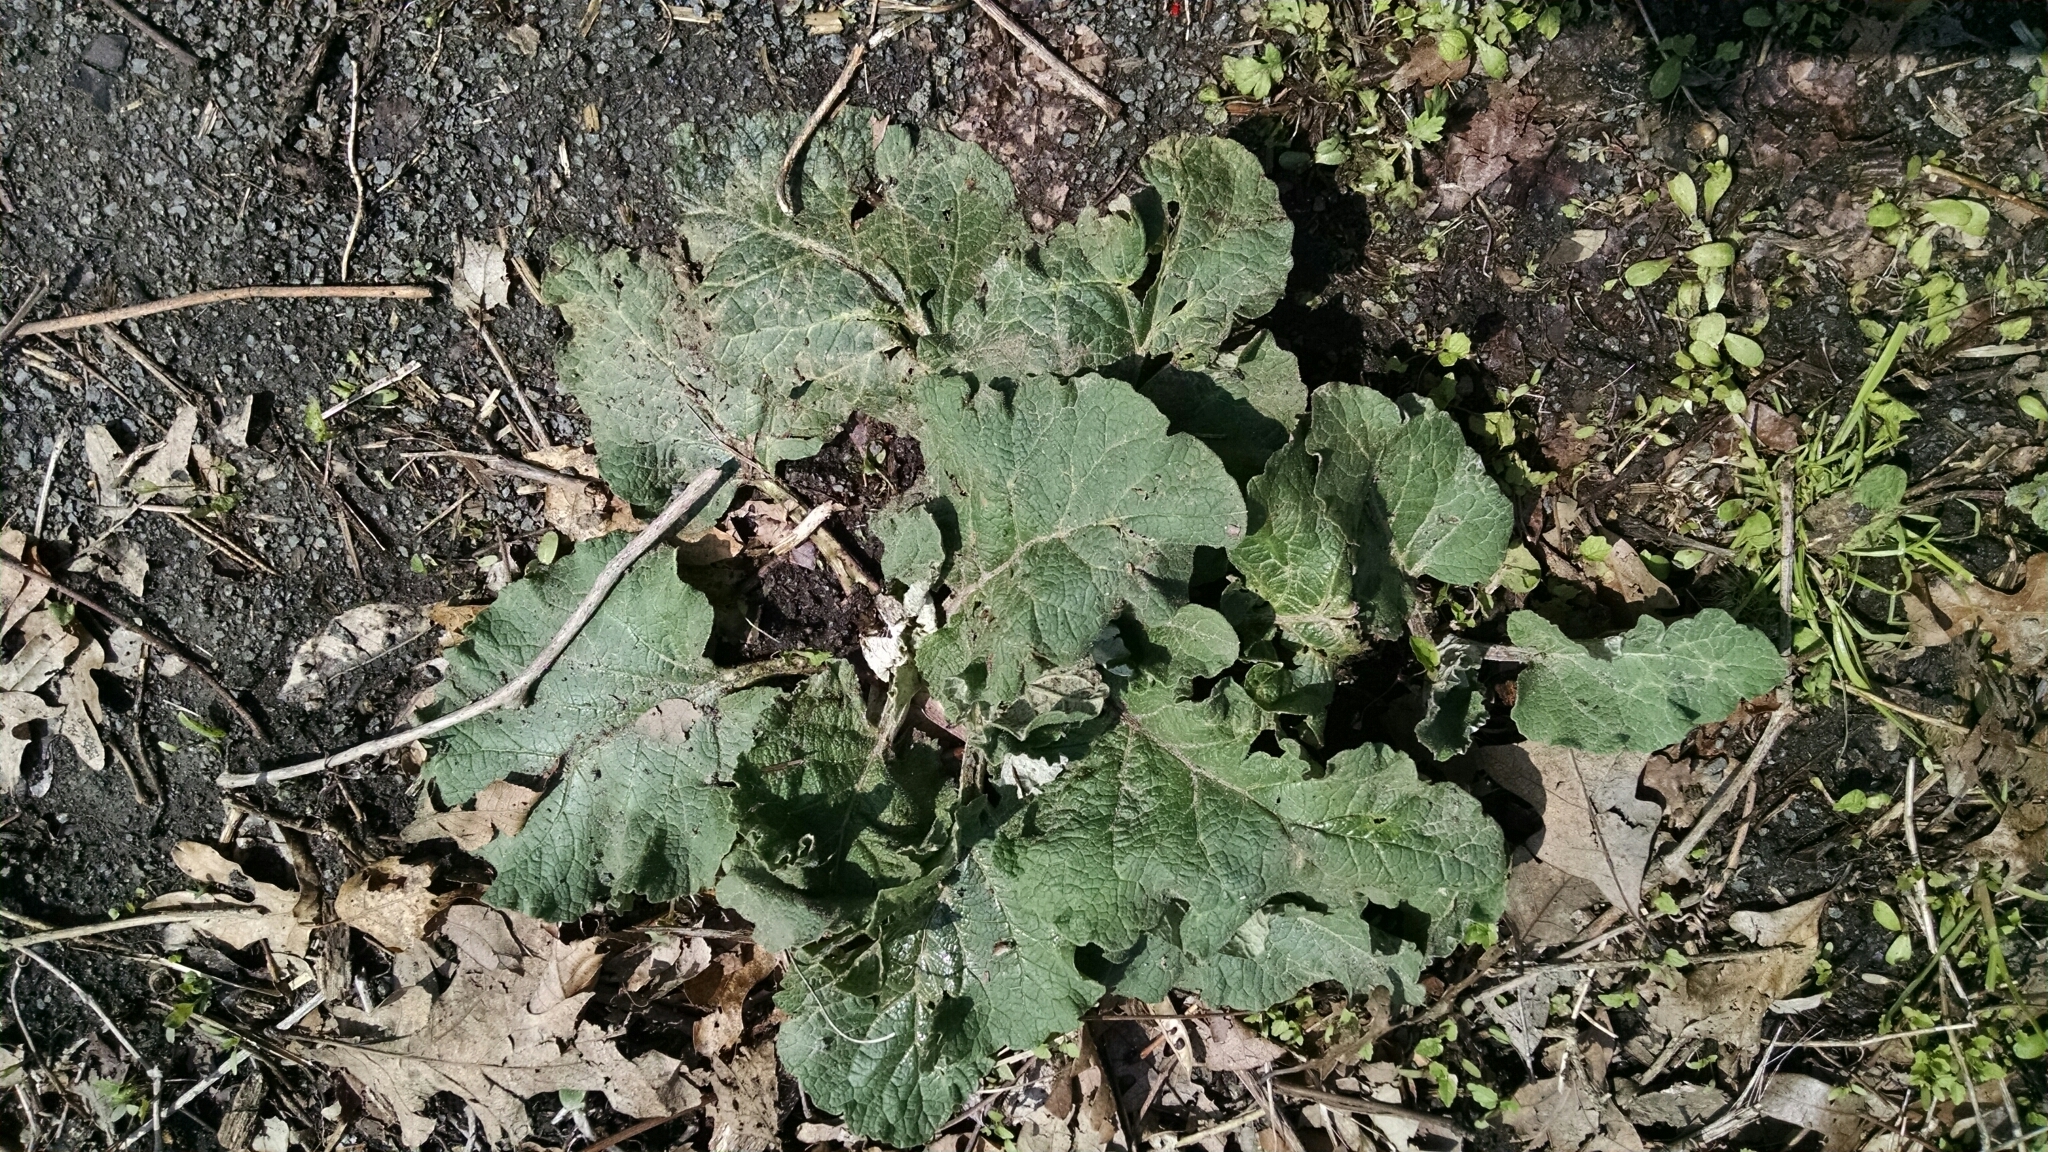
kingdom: Plantae
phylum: Tracheophyta
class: Magnoliopsida
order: Asterales
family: Asteraceae
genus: Arctium
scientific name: Arctium
